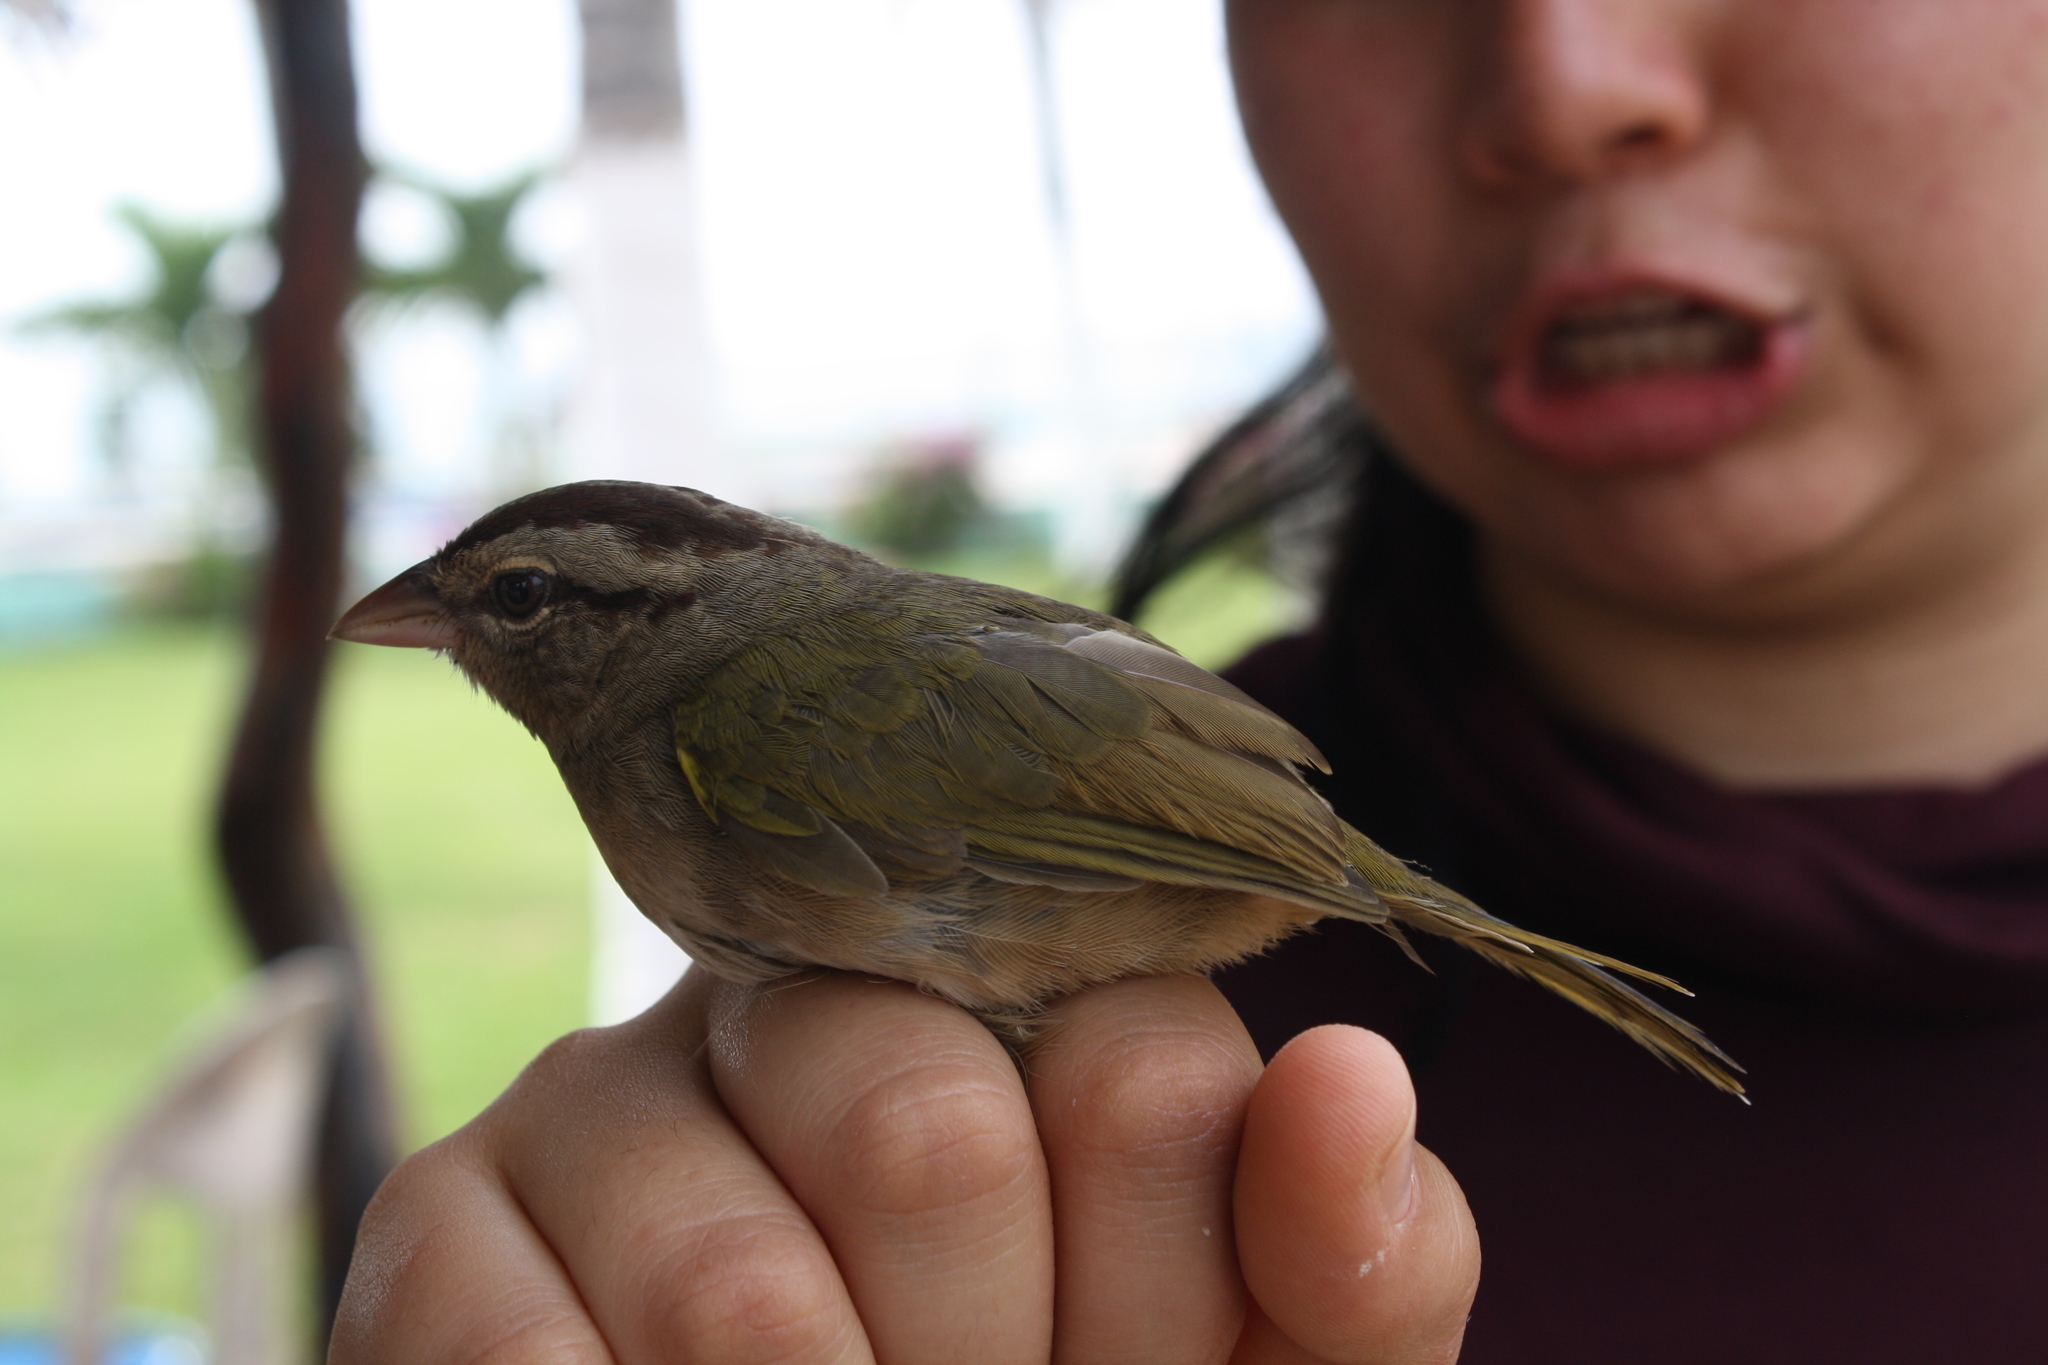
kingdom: Animalia
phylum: Chordata
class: Aves
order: Passeriformes
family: Passerellidae
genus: Arremonops
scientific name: Arremonops rufivirgatus
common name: Olive sparrow
